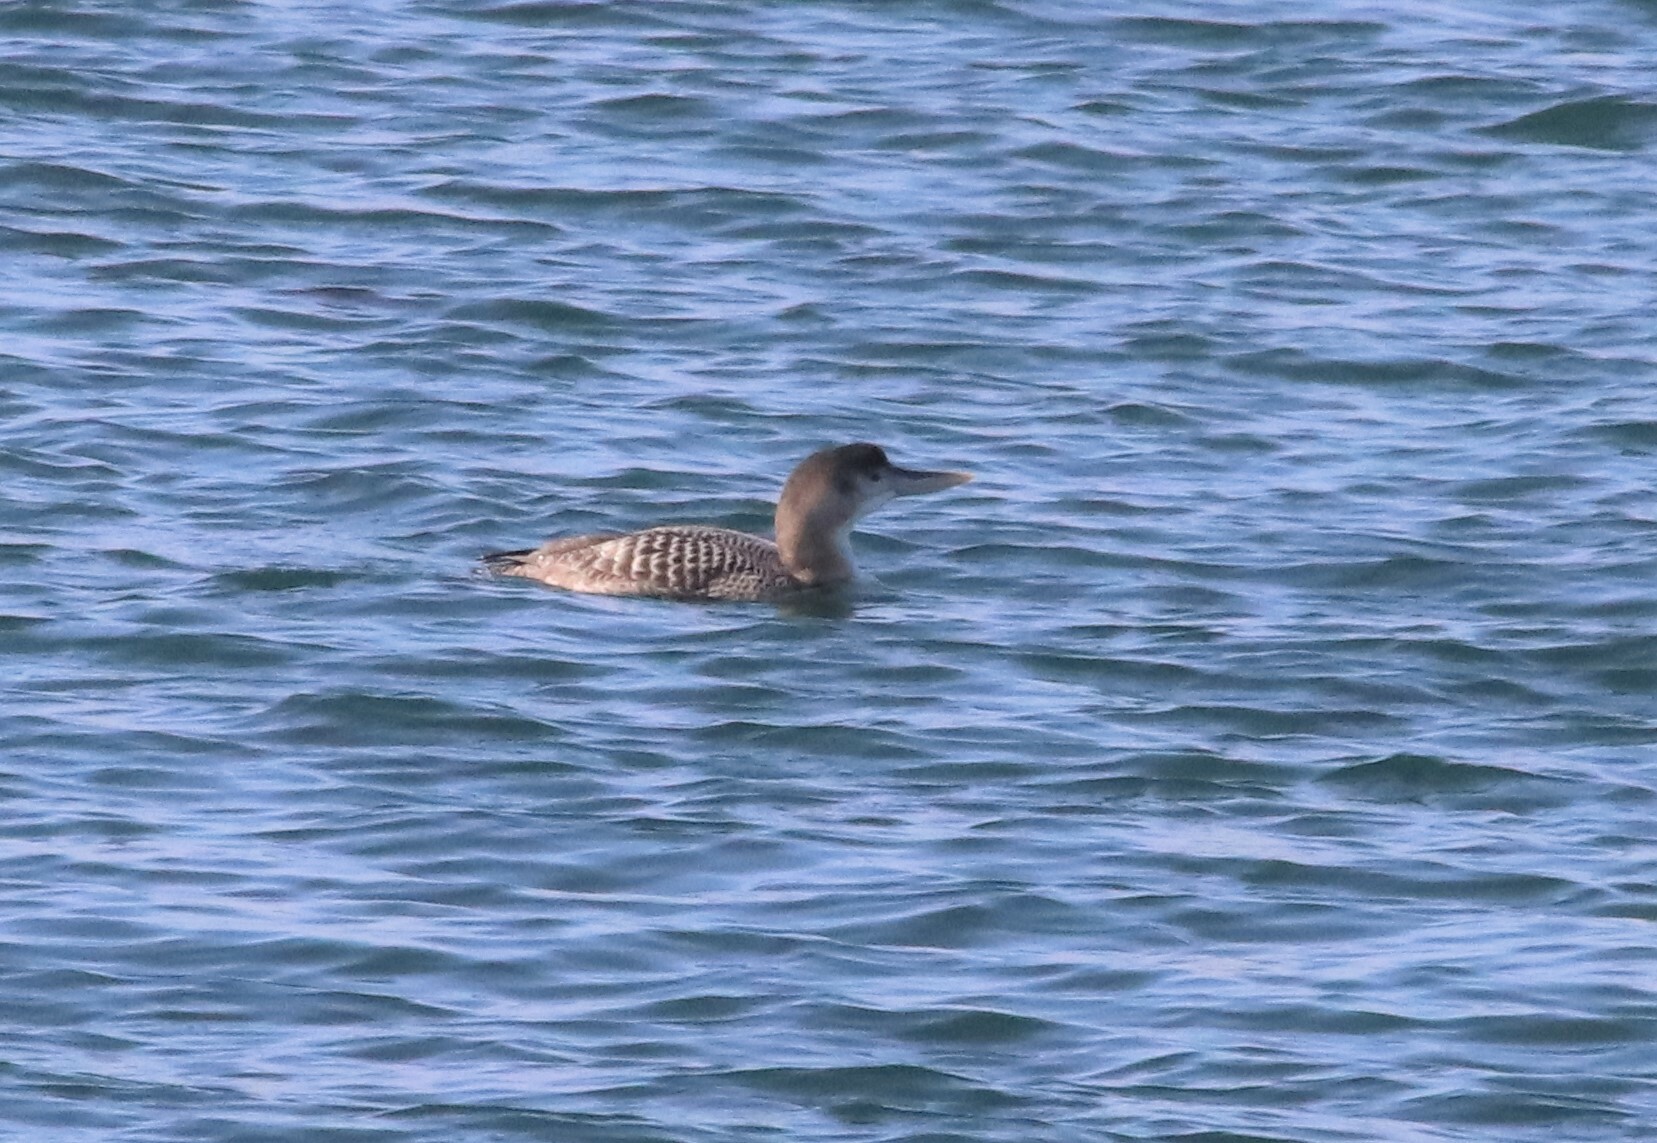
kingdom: Animalia
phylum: Chordata
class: Aves
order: Gaviiformes
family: Gaviidae
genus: Gavia
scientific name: Gavia adamsii
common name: Yellow-billed loon
